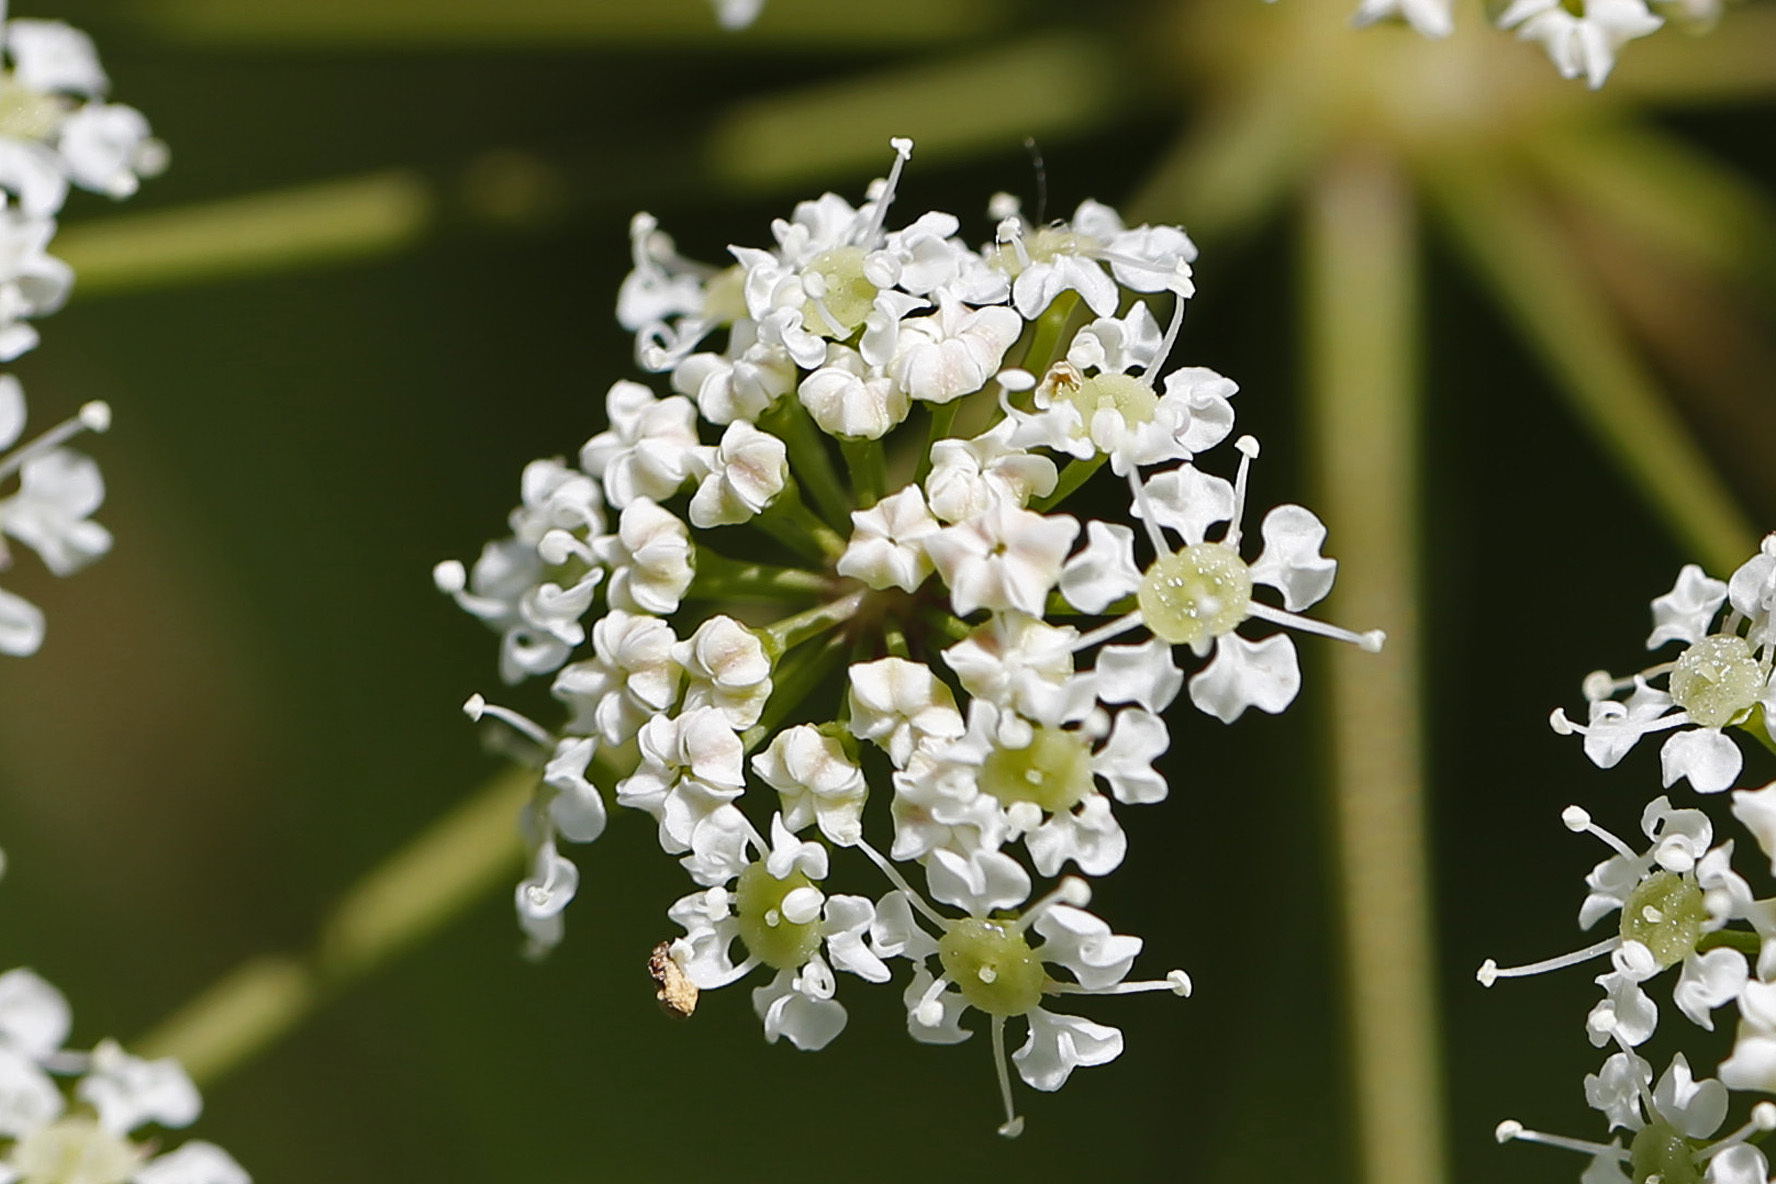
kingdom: Plantae
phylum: Tracheophyta
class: Magnoliopsida
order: Apiales
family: Apiaceae
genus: Cicuta
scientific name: Cicuta maculata
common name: Spotted cowbane
